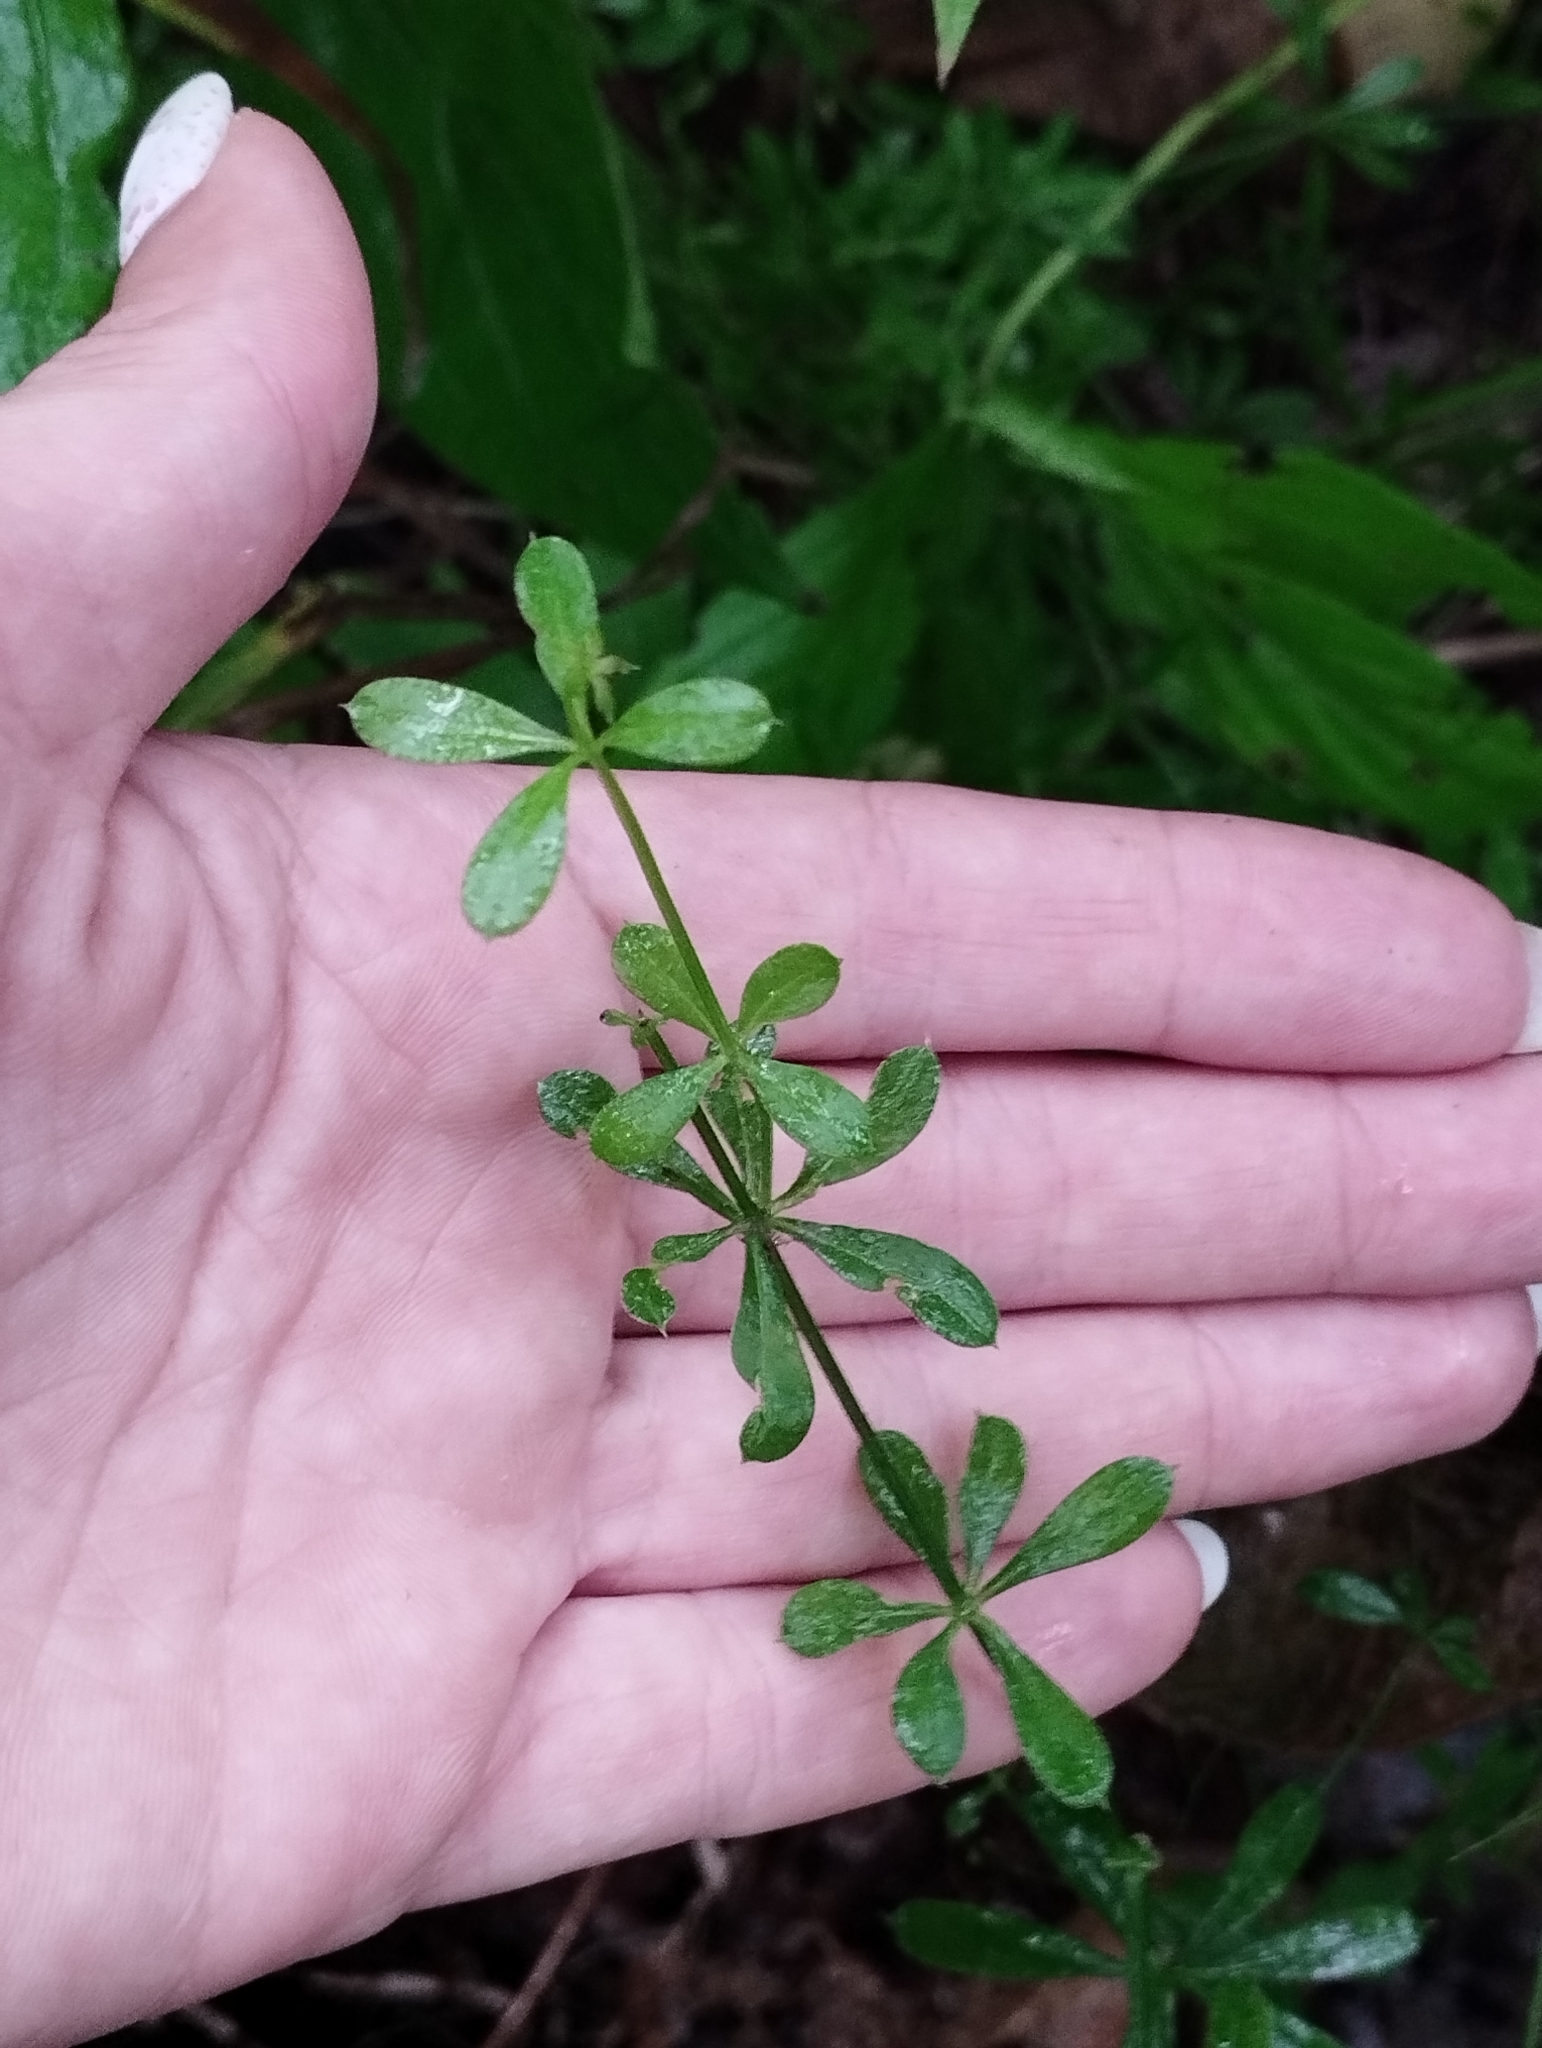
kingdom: Plantae
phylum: Tracheophyta
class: Magnoliopsida
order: Gentianales
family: Rubiaceae
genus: Galium
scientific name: Galium dahuricum
